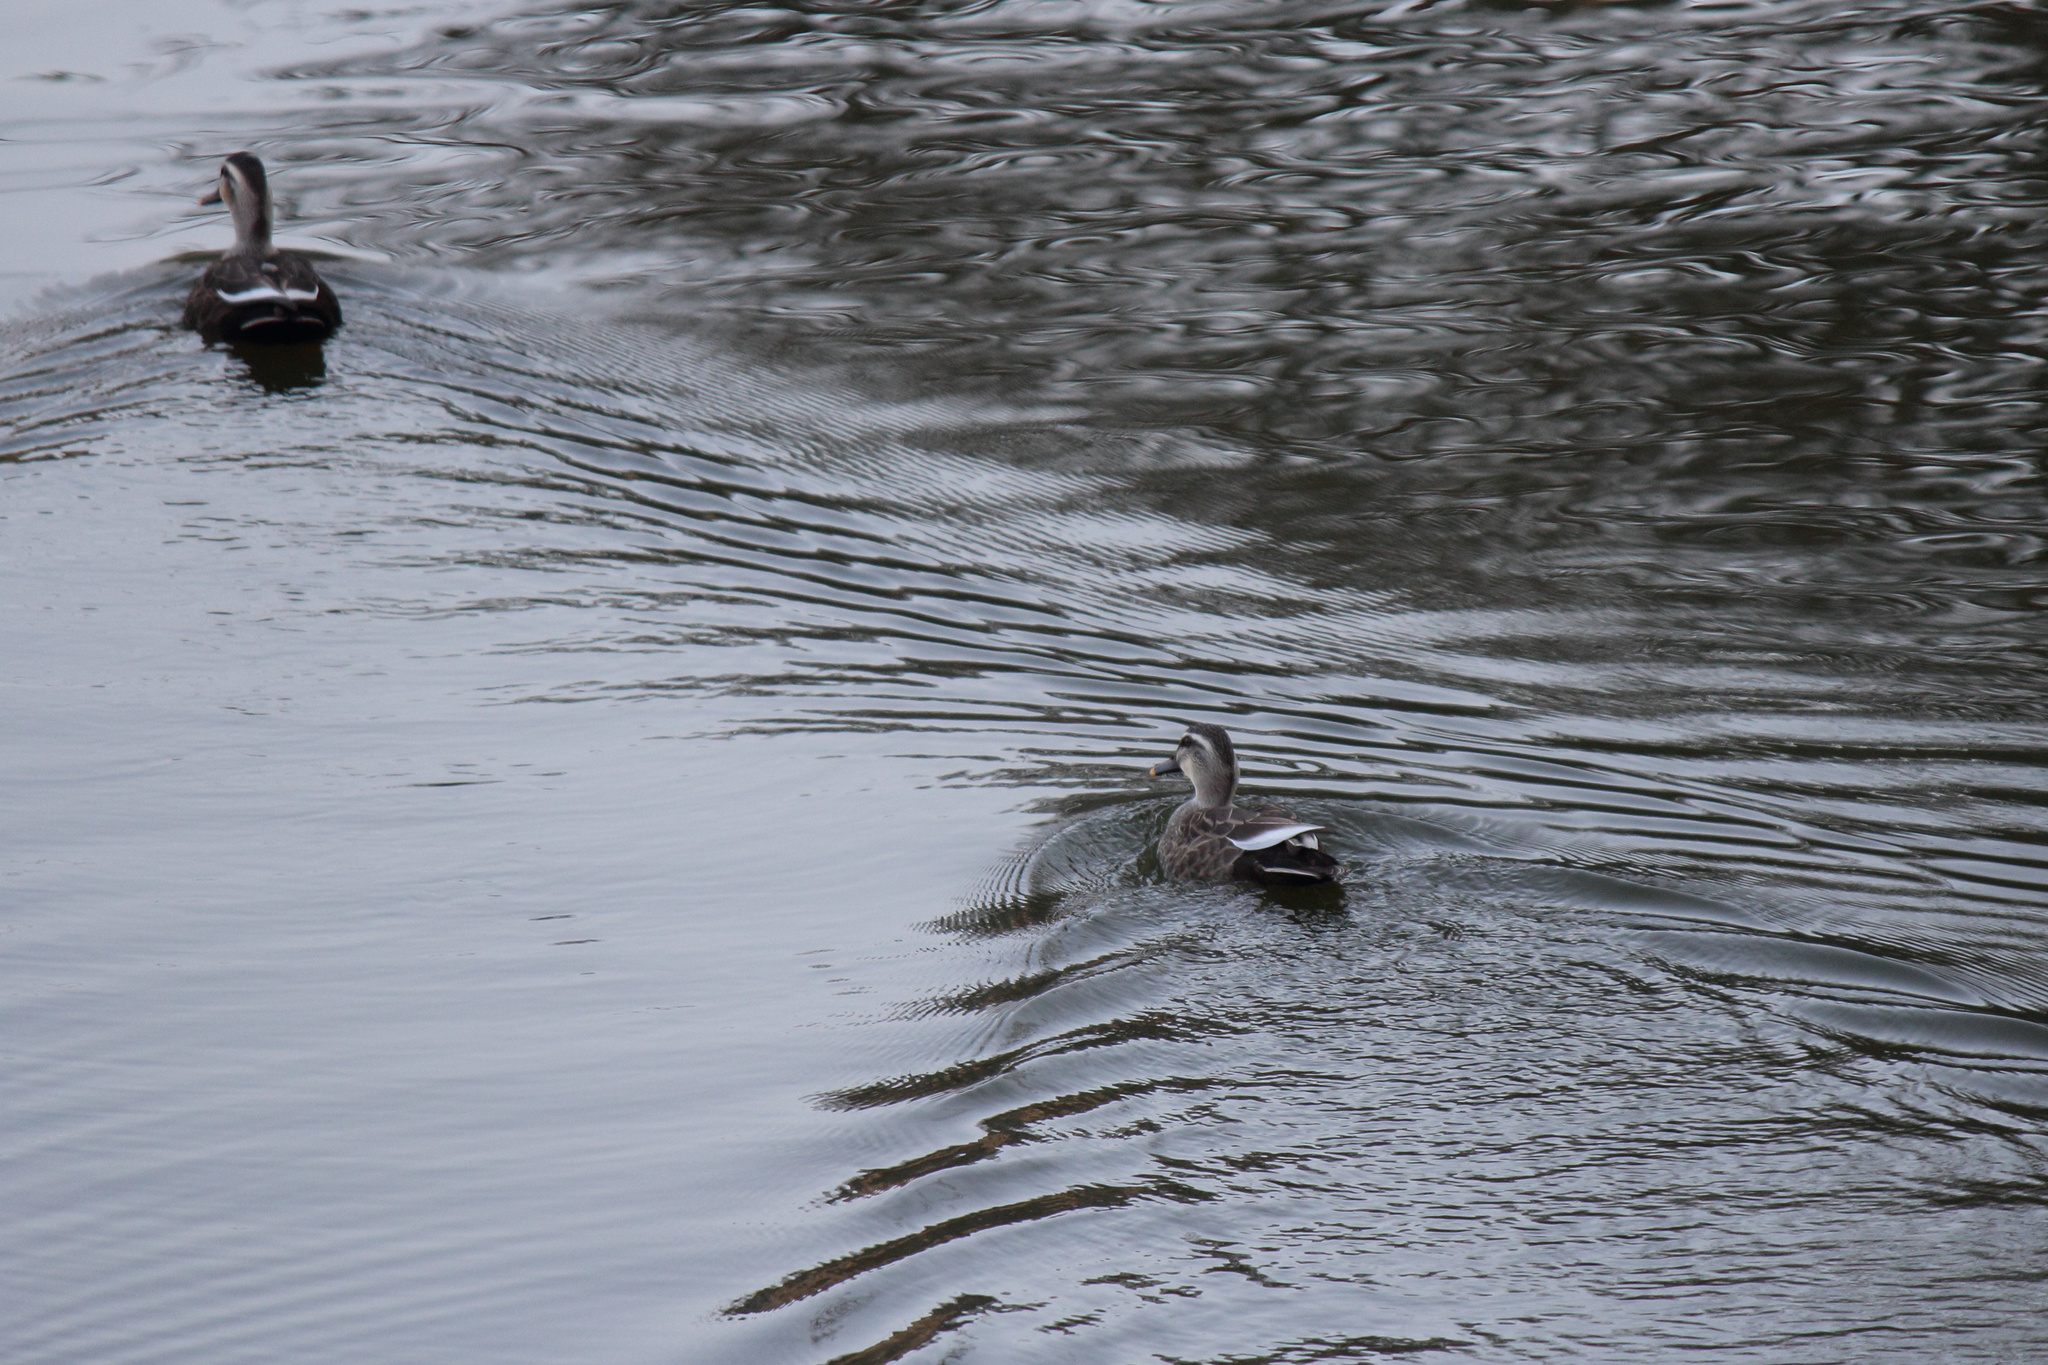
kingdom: Animalia
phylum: Chordata
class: Aves
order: Anseriformes
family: Anatidae
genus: Anas
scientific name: Anas zonorhyncha
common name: Eastern spot-billed duck
